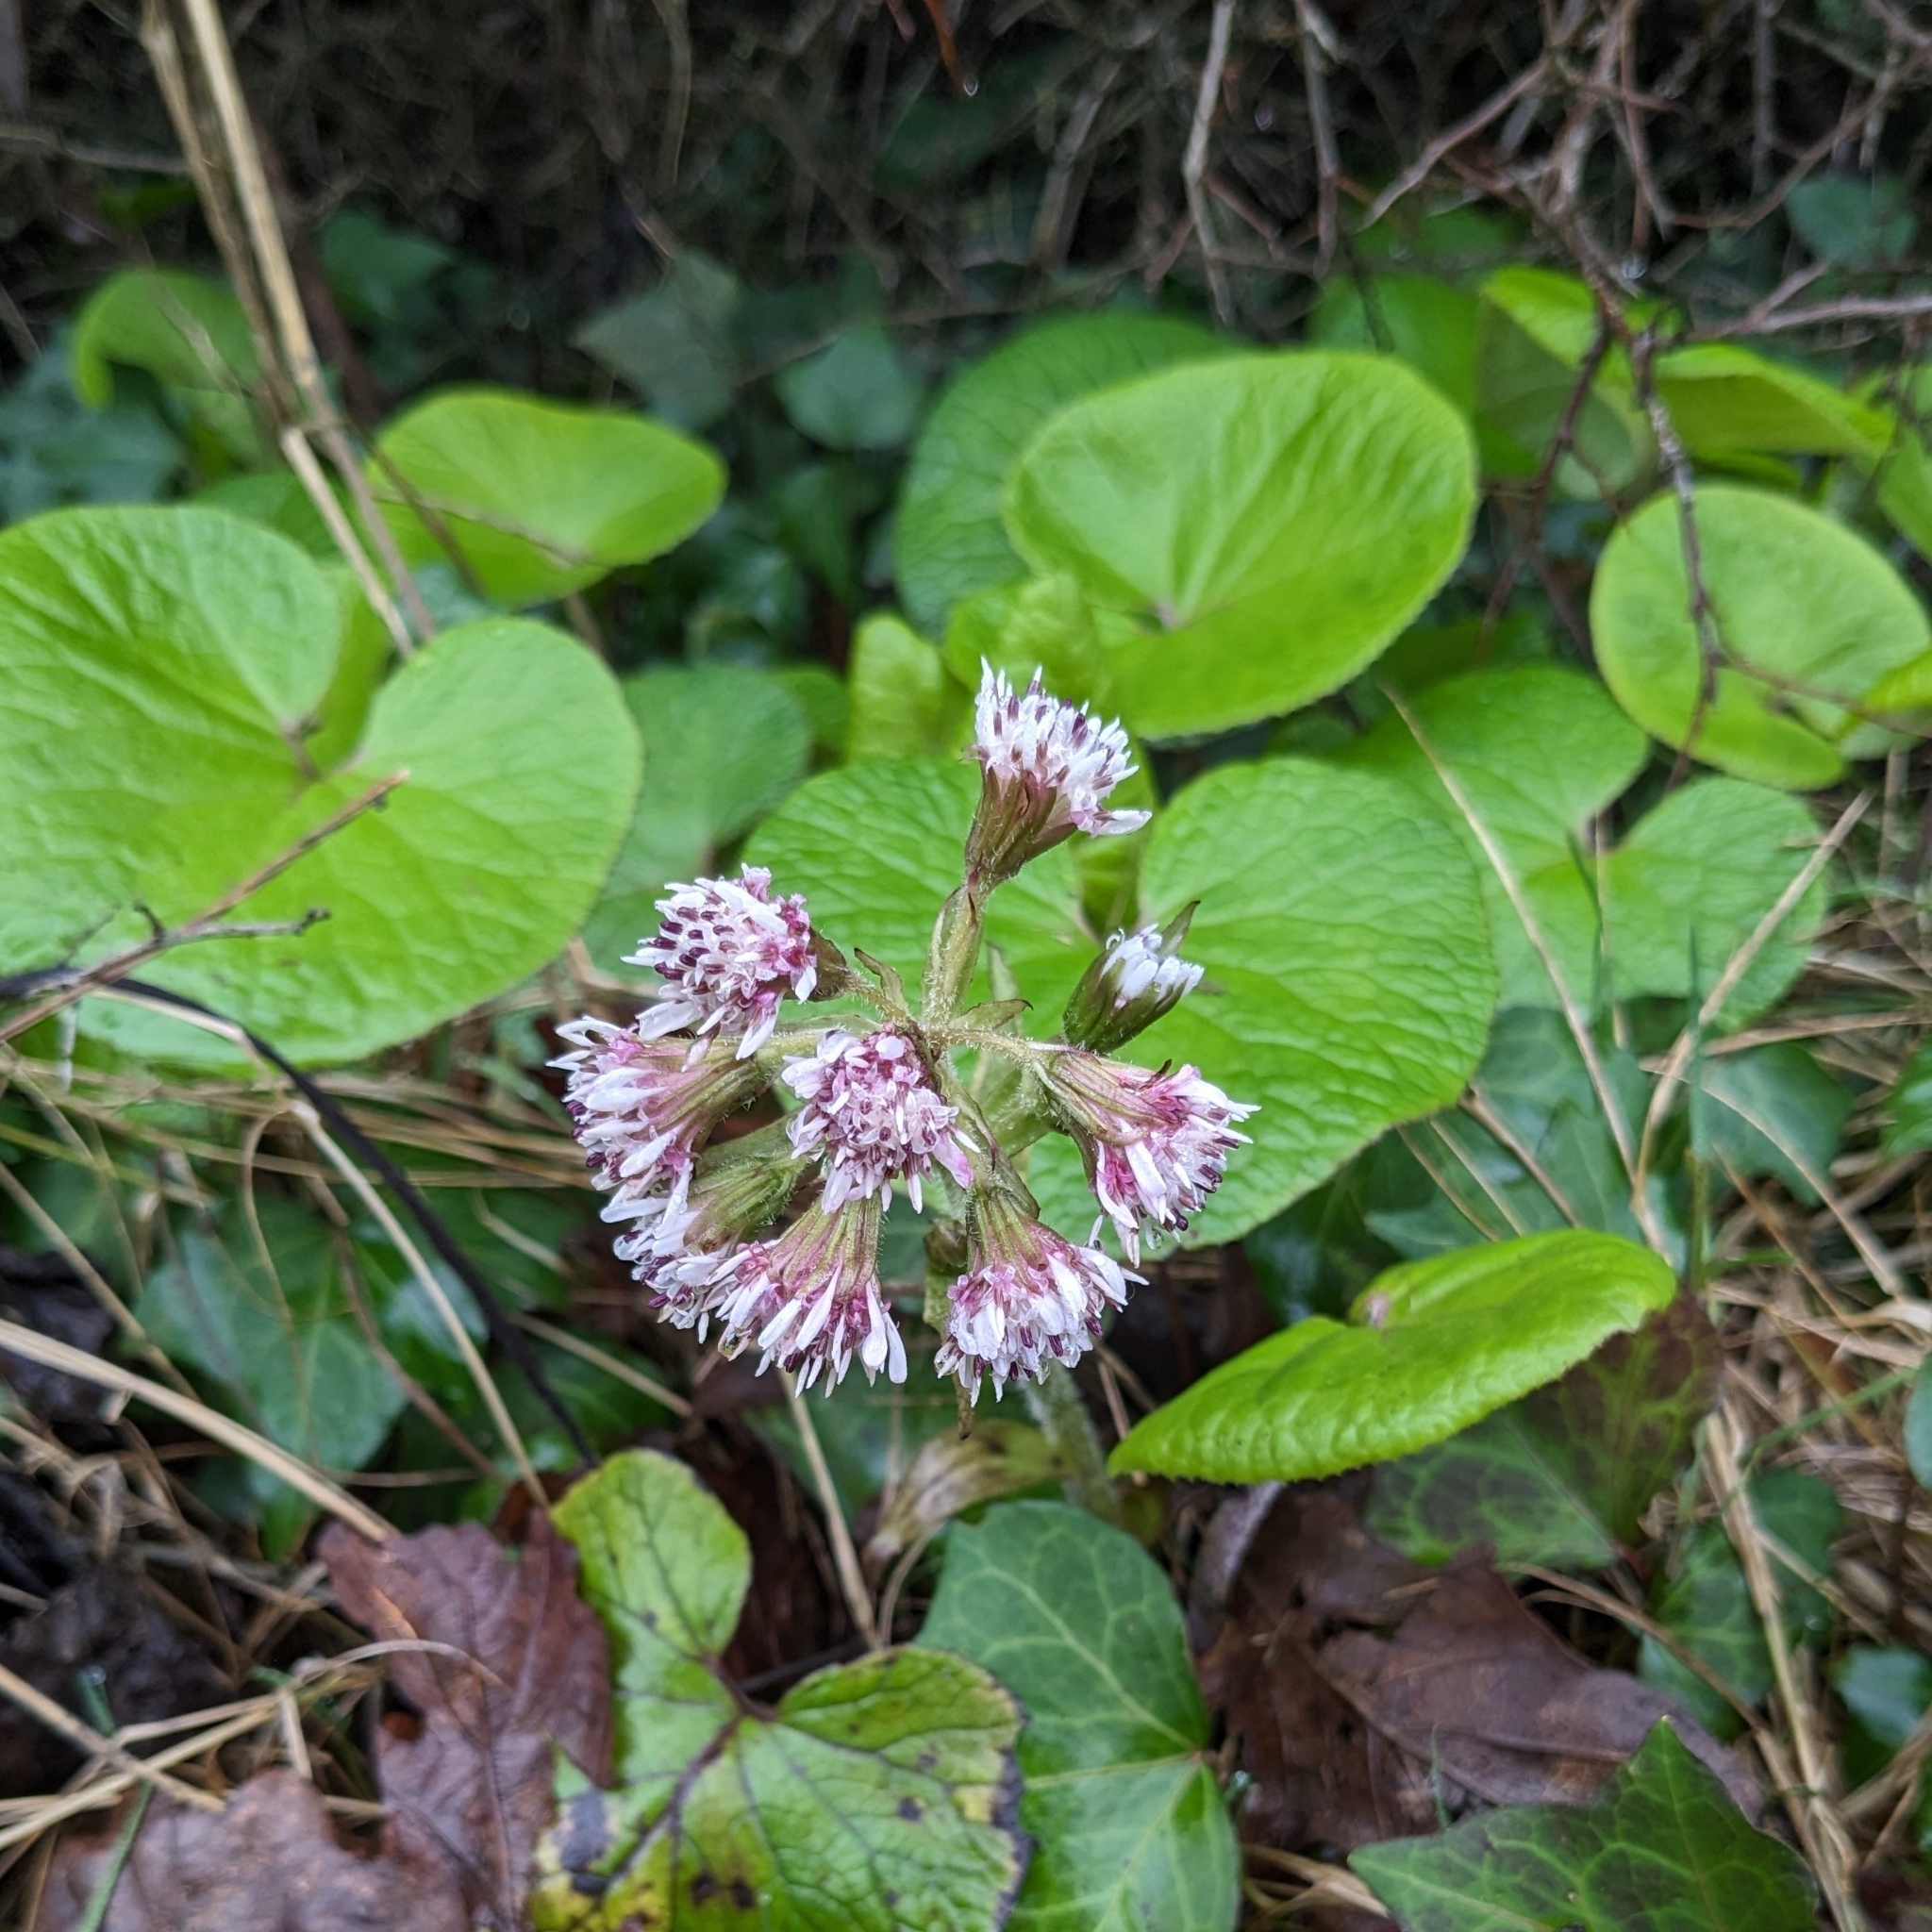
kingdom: Plantae
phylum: Tracheophyta
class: Magnoliopsida
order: Asterales
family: Asteraceae
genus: Petasites
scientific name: Petasites pyrenaicus
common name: Winter heliotrope
